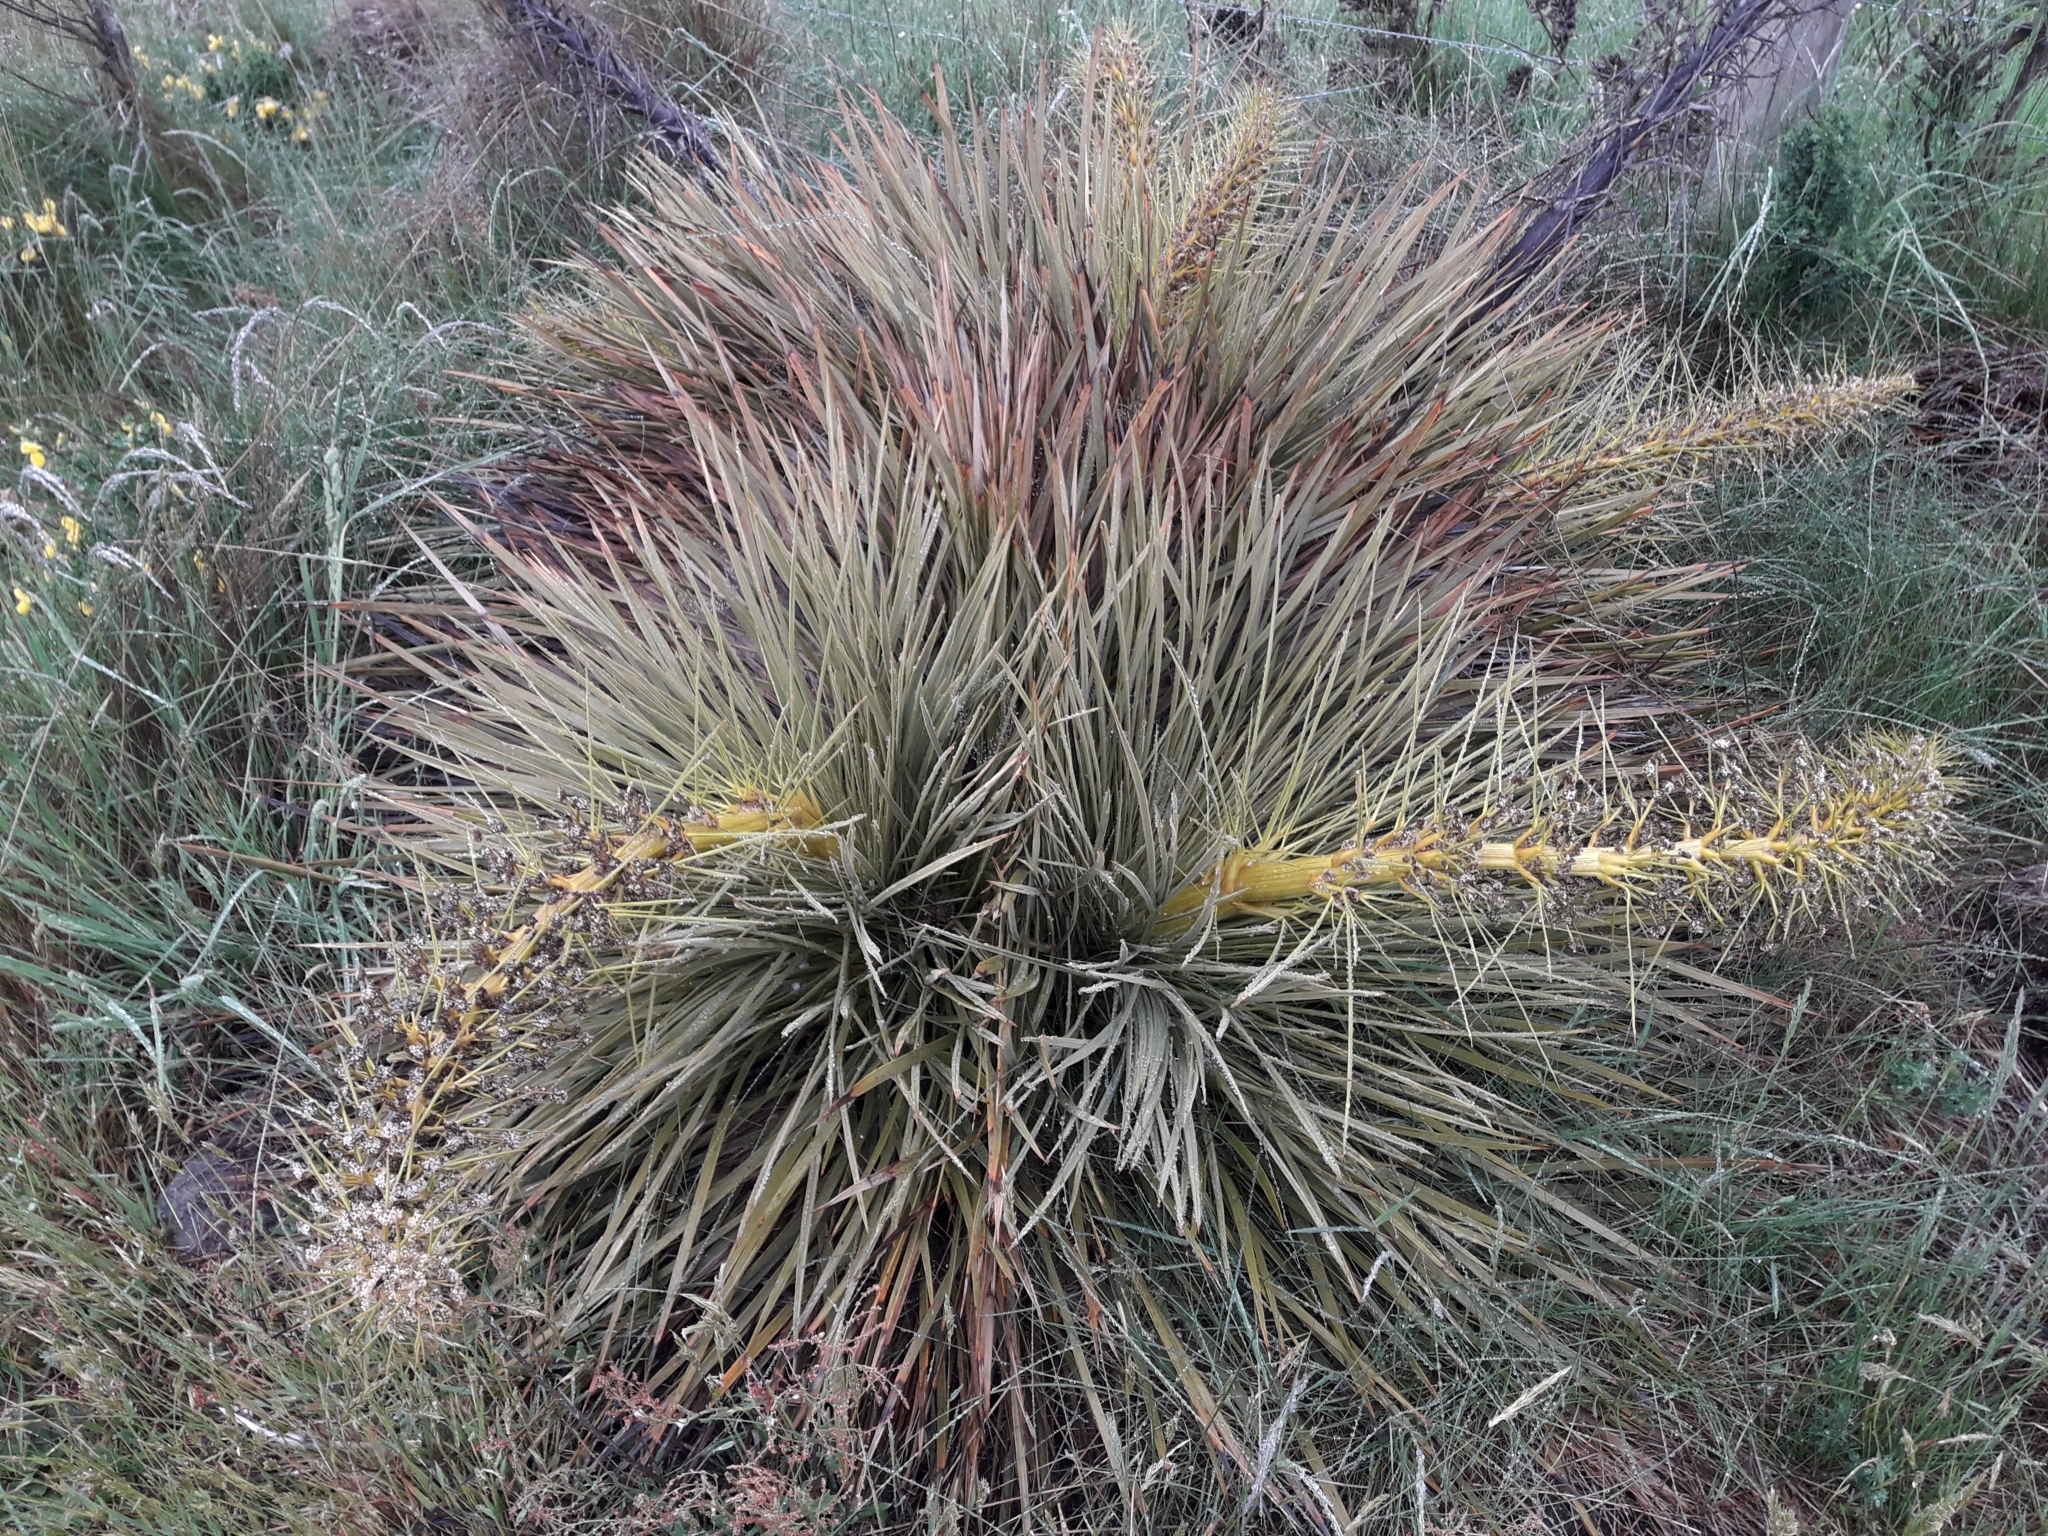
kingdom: Plantae
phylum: Tracheophyta
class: Magnoliopsida
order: Apiales
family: Apiaceae
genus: Aciphylla
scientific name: Aciphylla aurea
